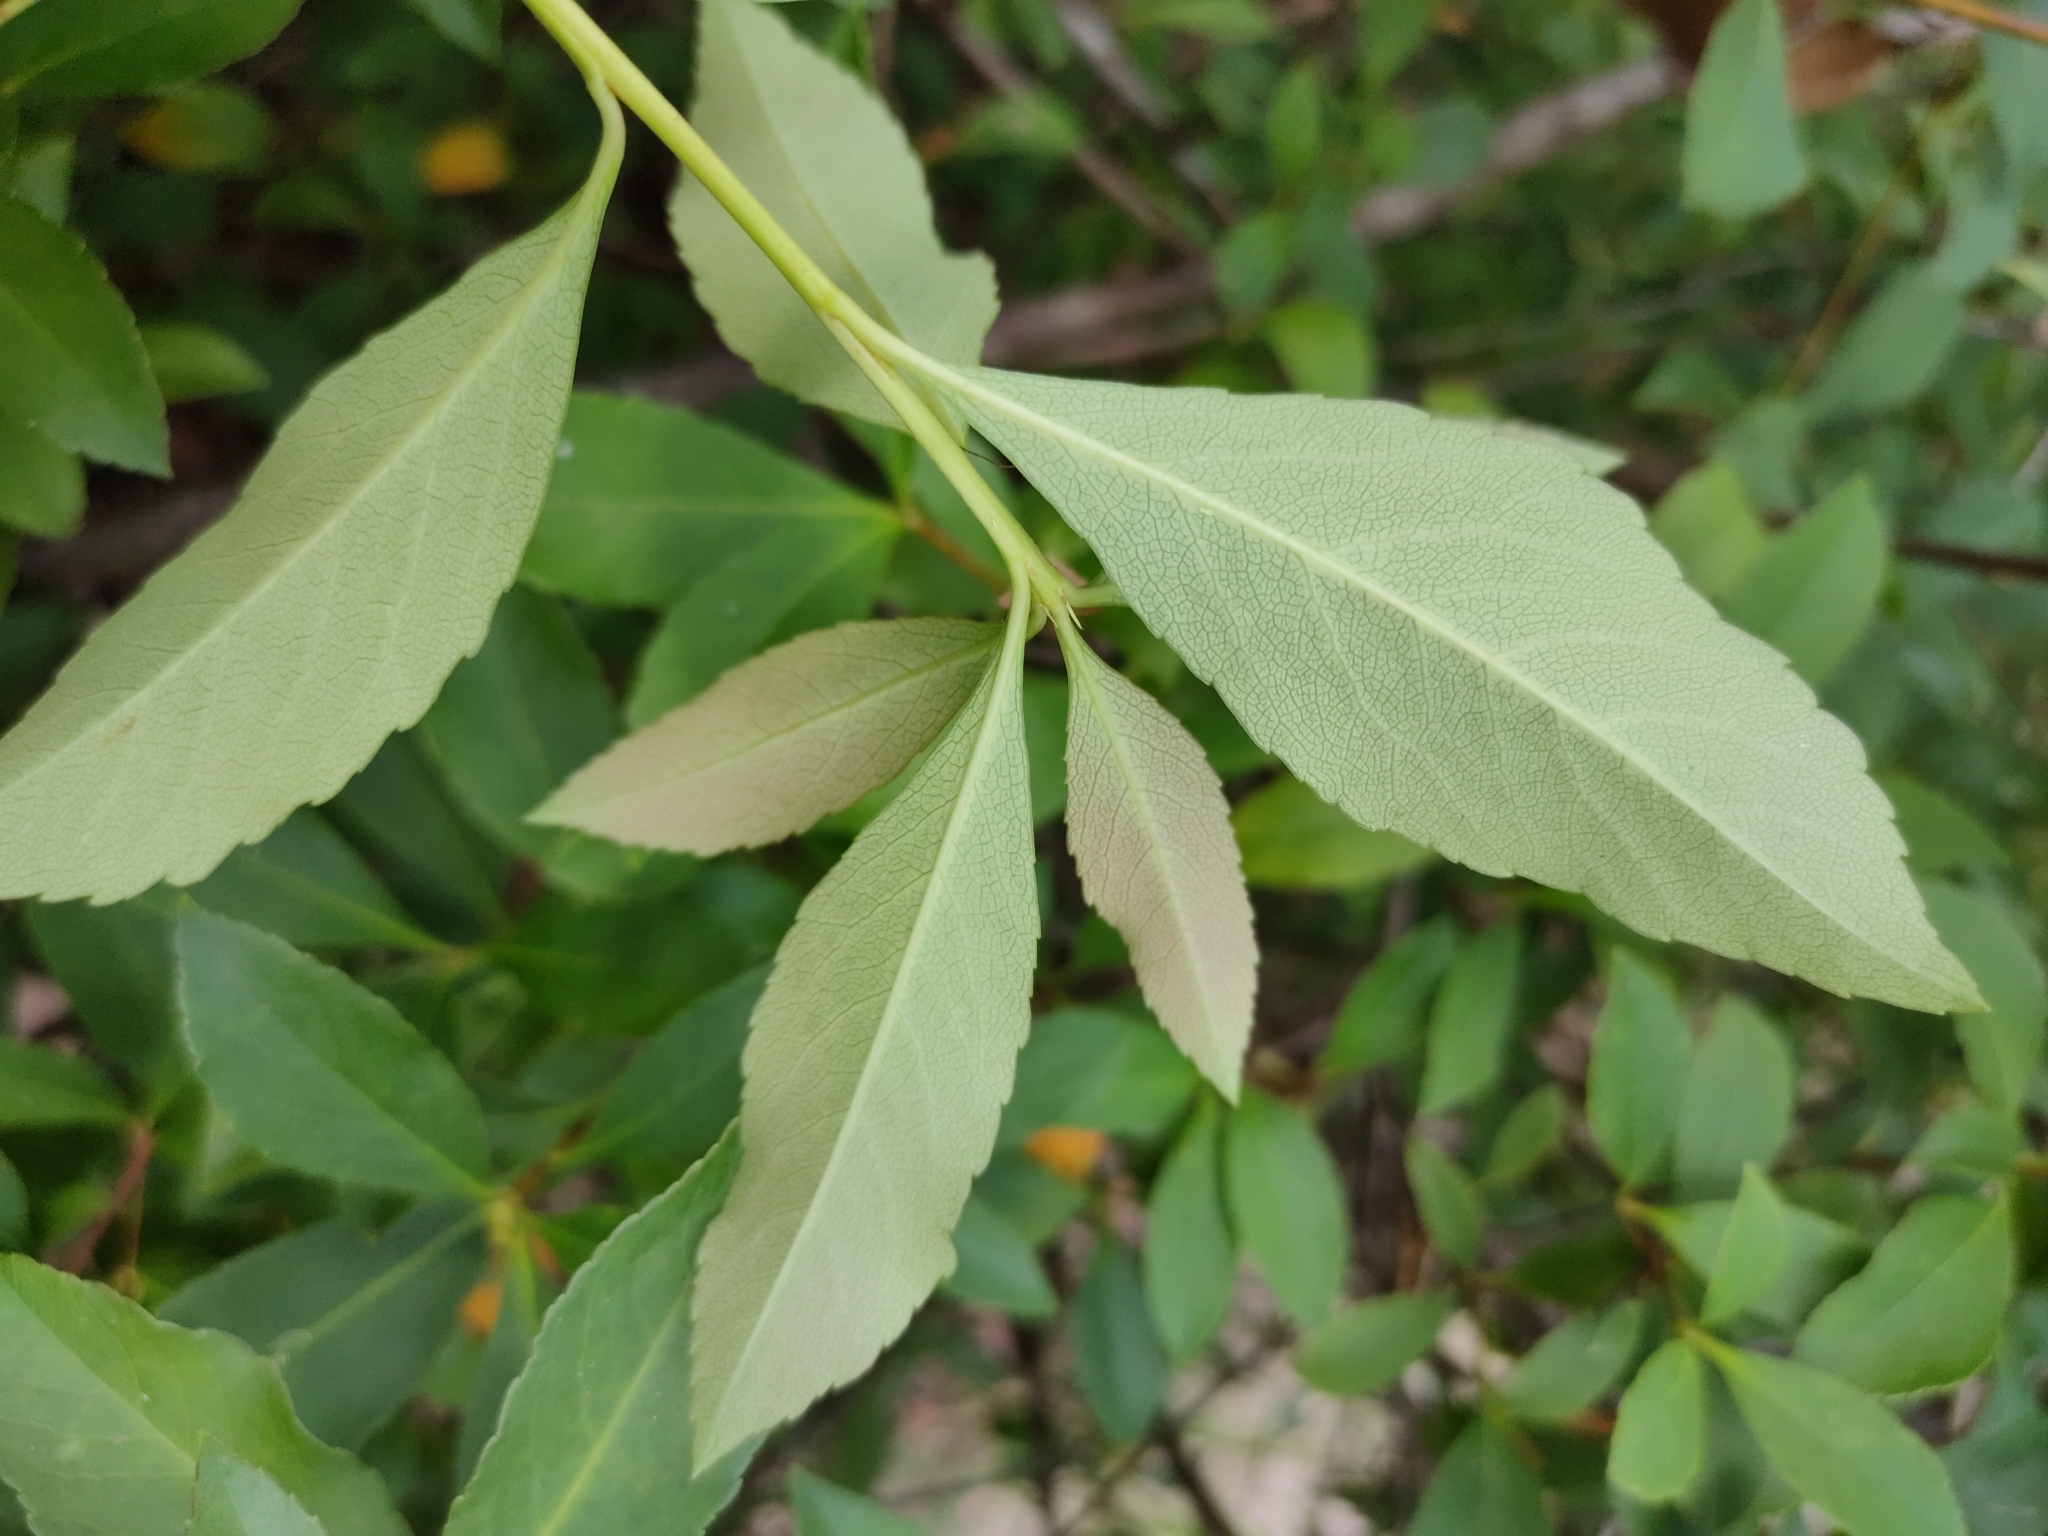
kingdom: Plantae
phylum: Tracheophyta
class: Magnoliopsida
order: Rosales
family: Rosaceae
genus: Rhaphiolepis
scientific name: Rhaphiolepis indica
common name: India-hawthorn
